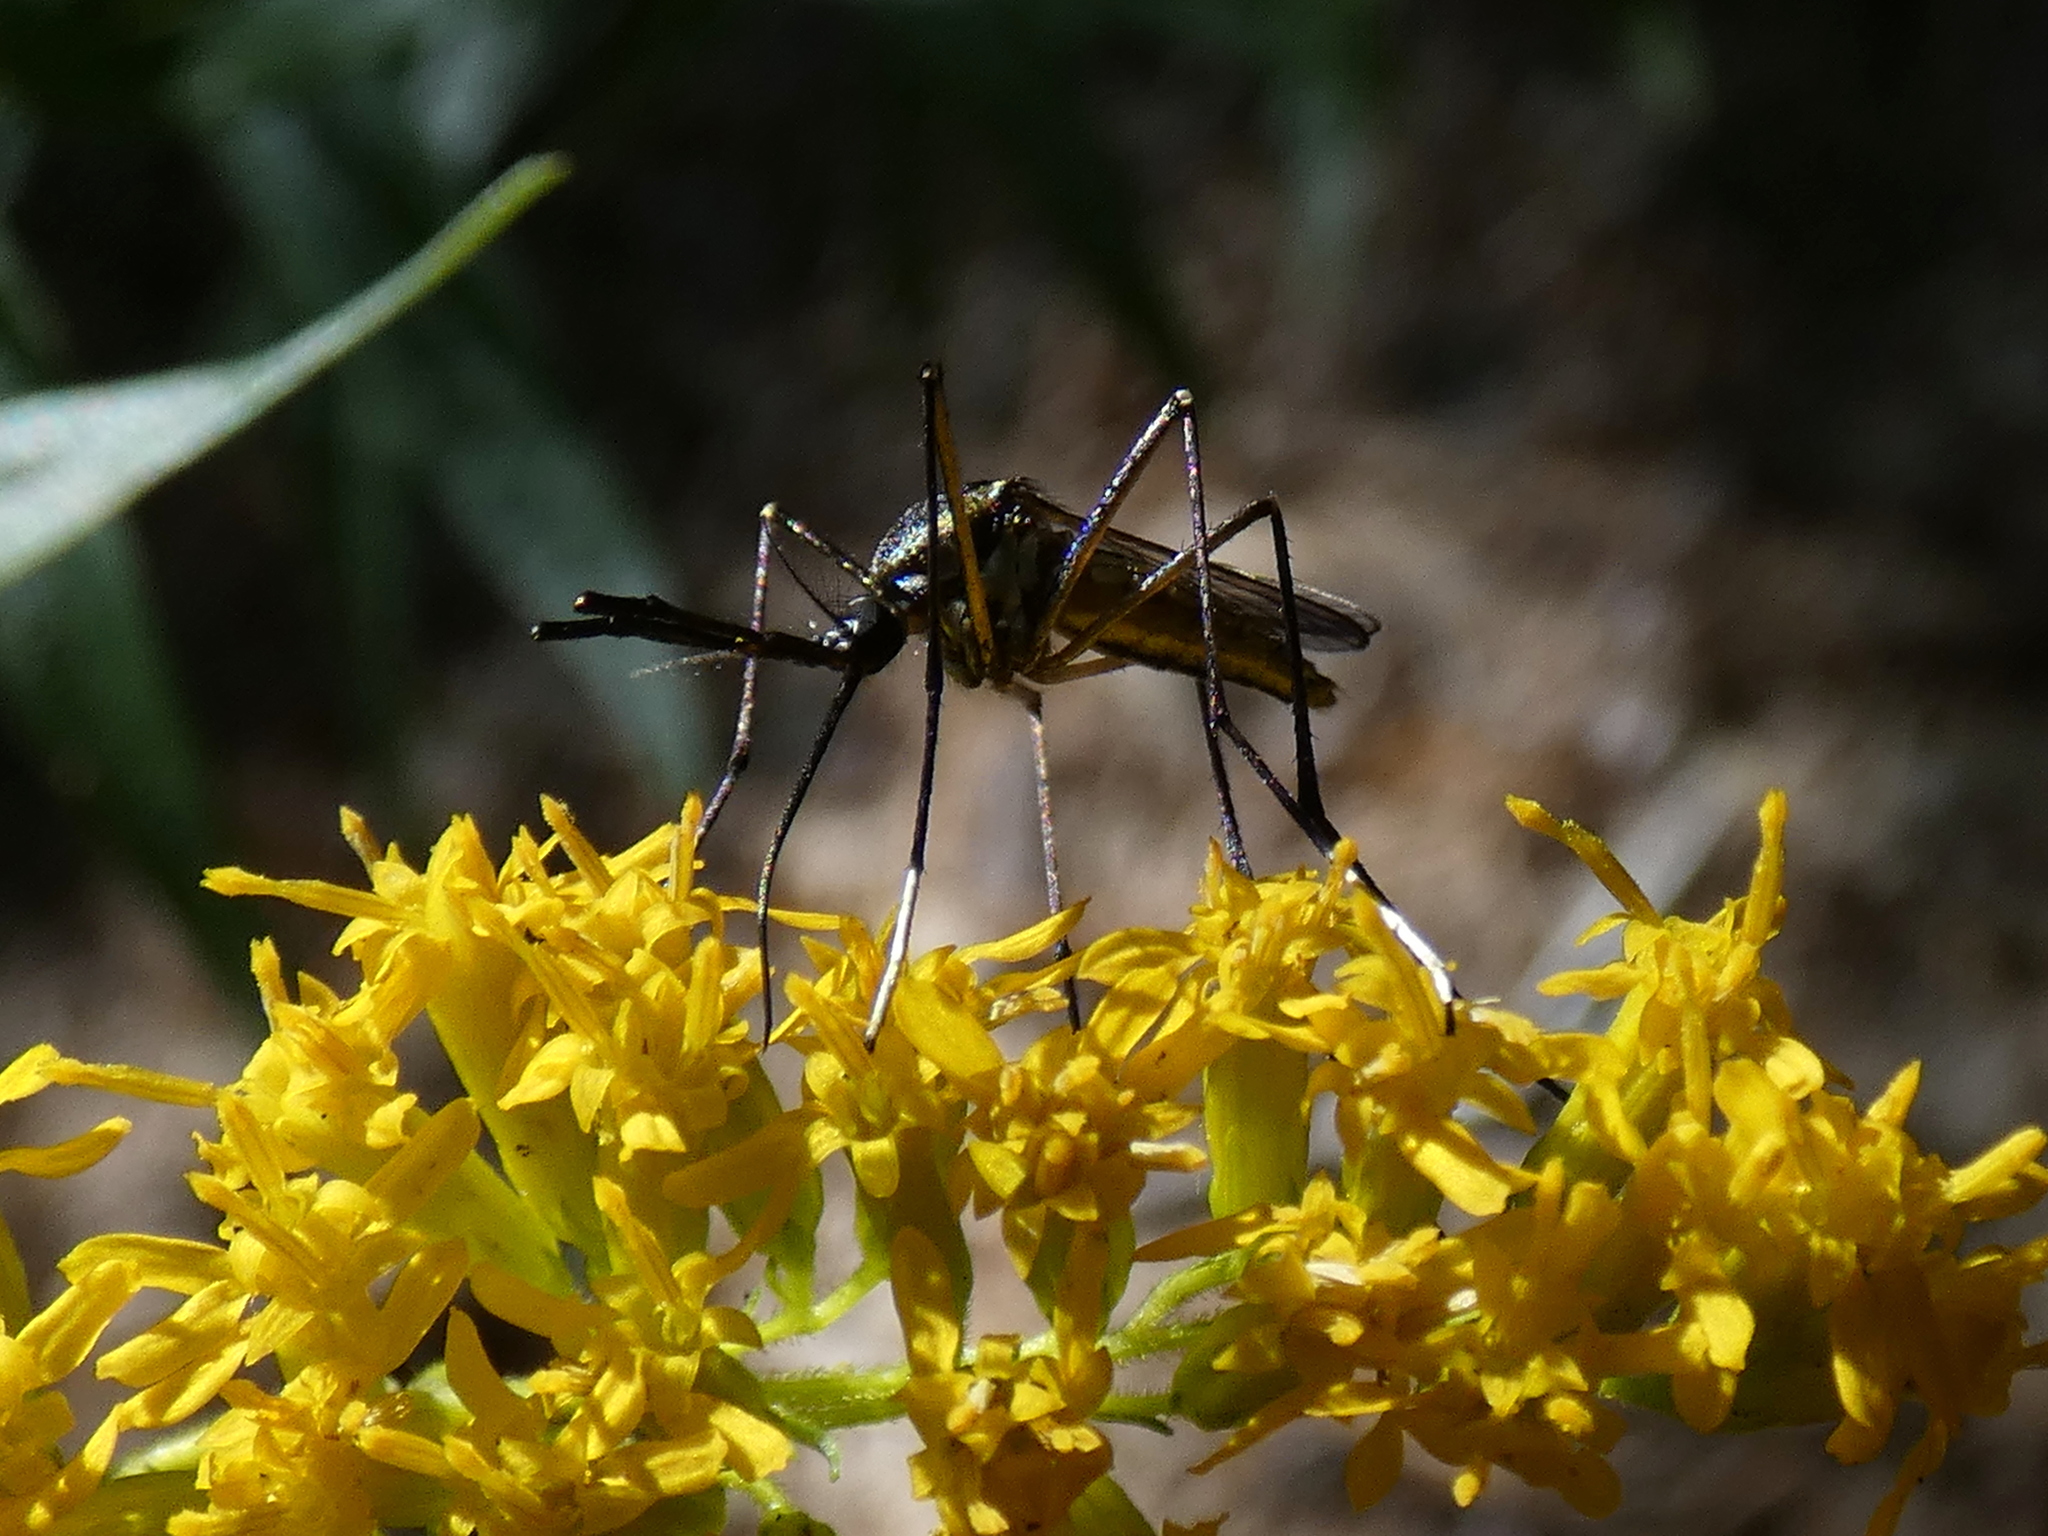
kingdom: Animalia
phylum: Arthropoda
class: Insecta
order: Diptera
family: Culicidae
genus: Toxorhynchites
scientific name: Toxorhynchites rutilus
